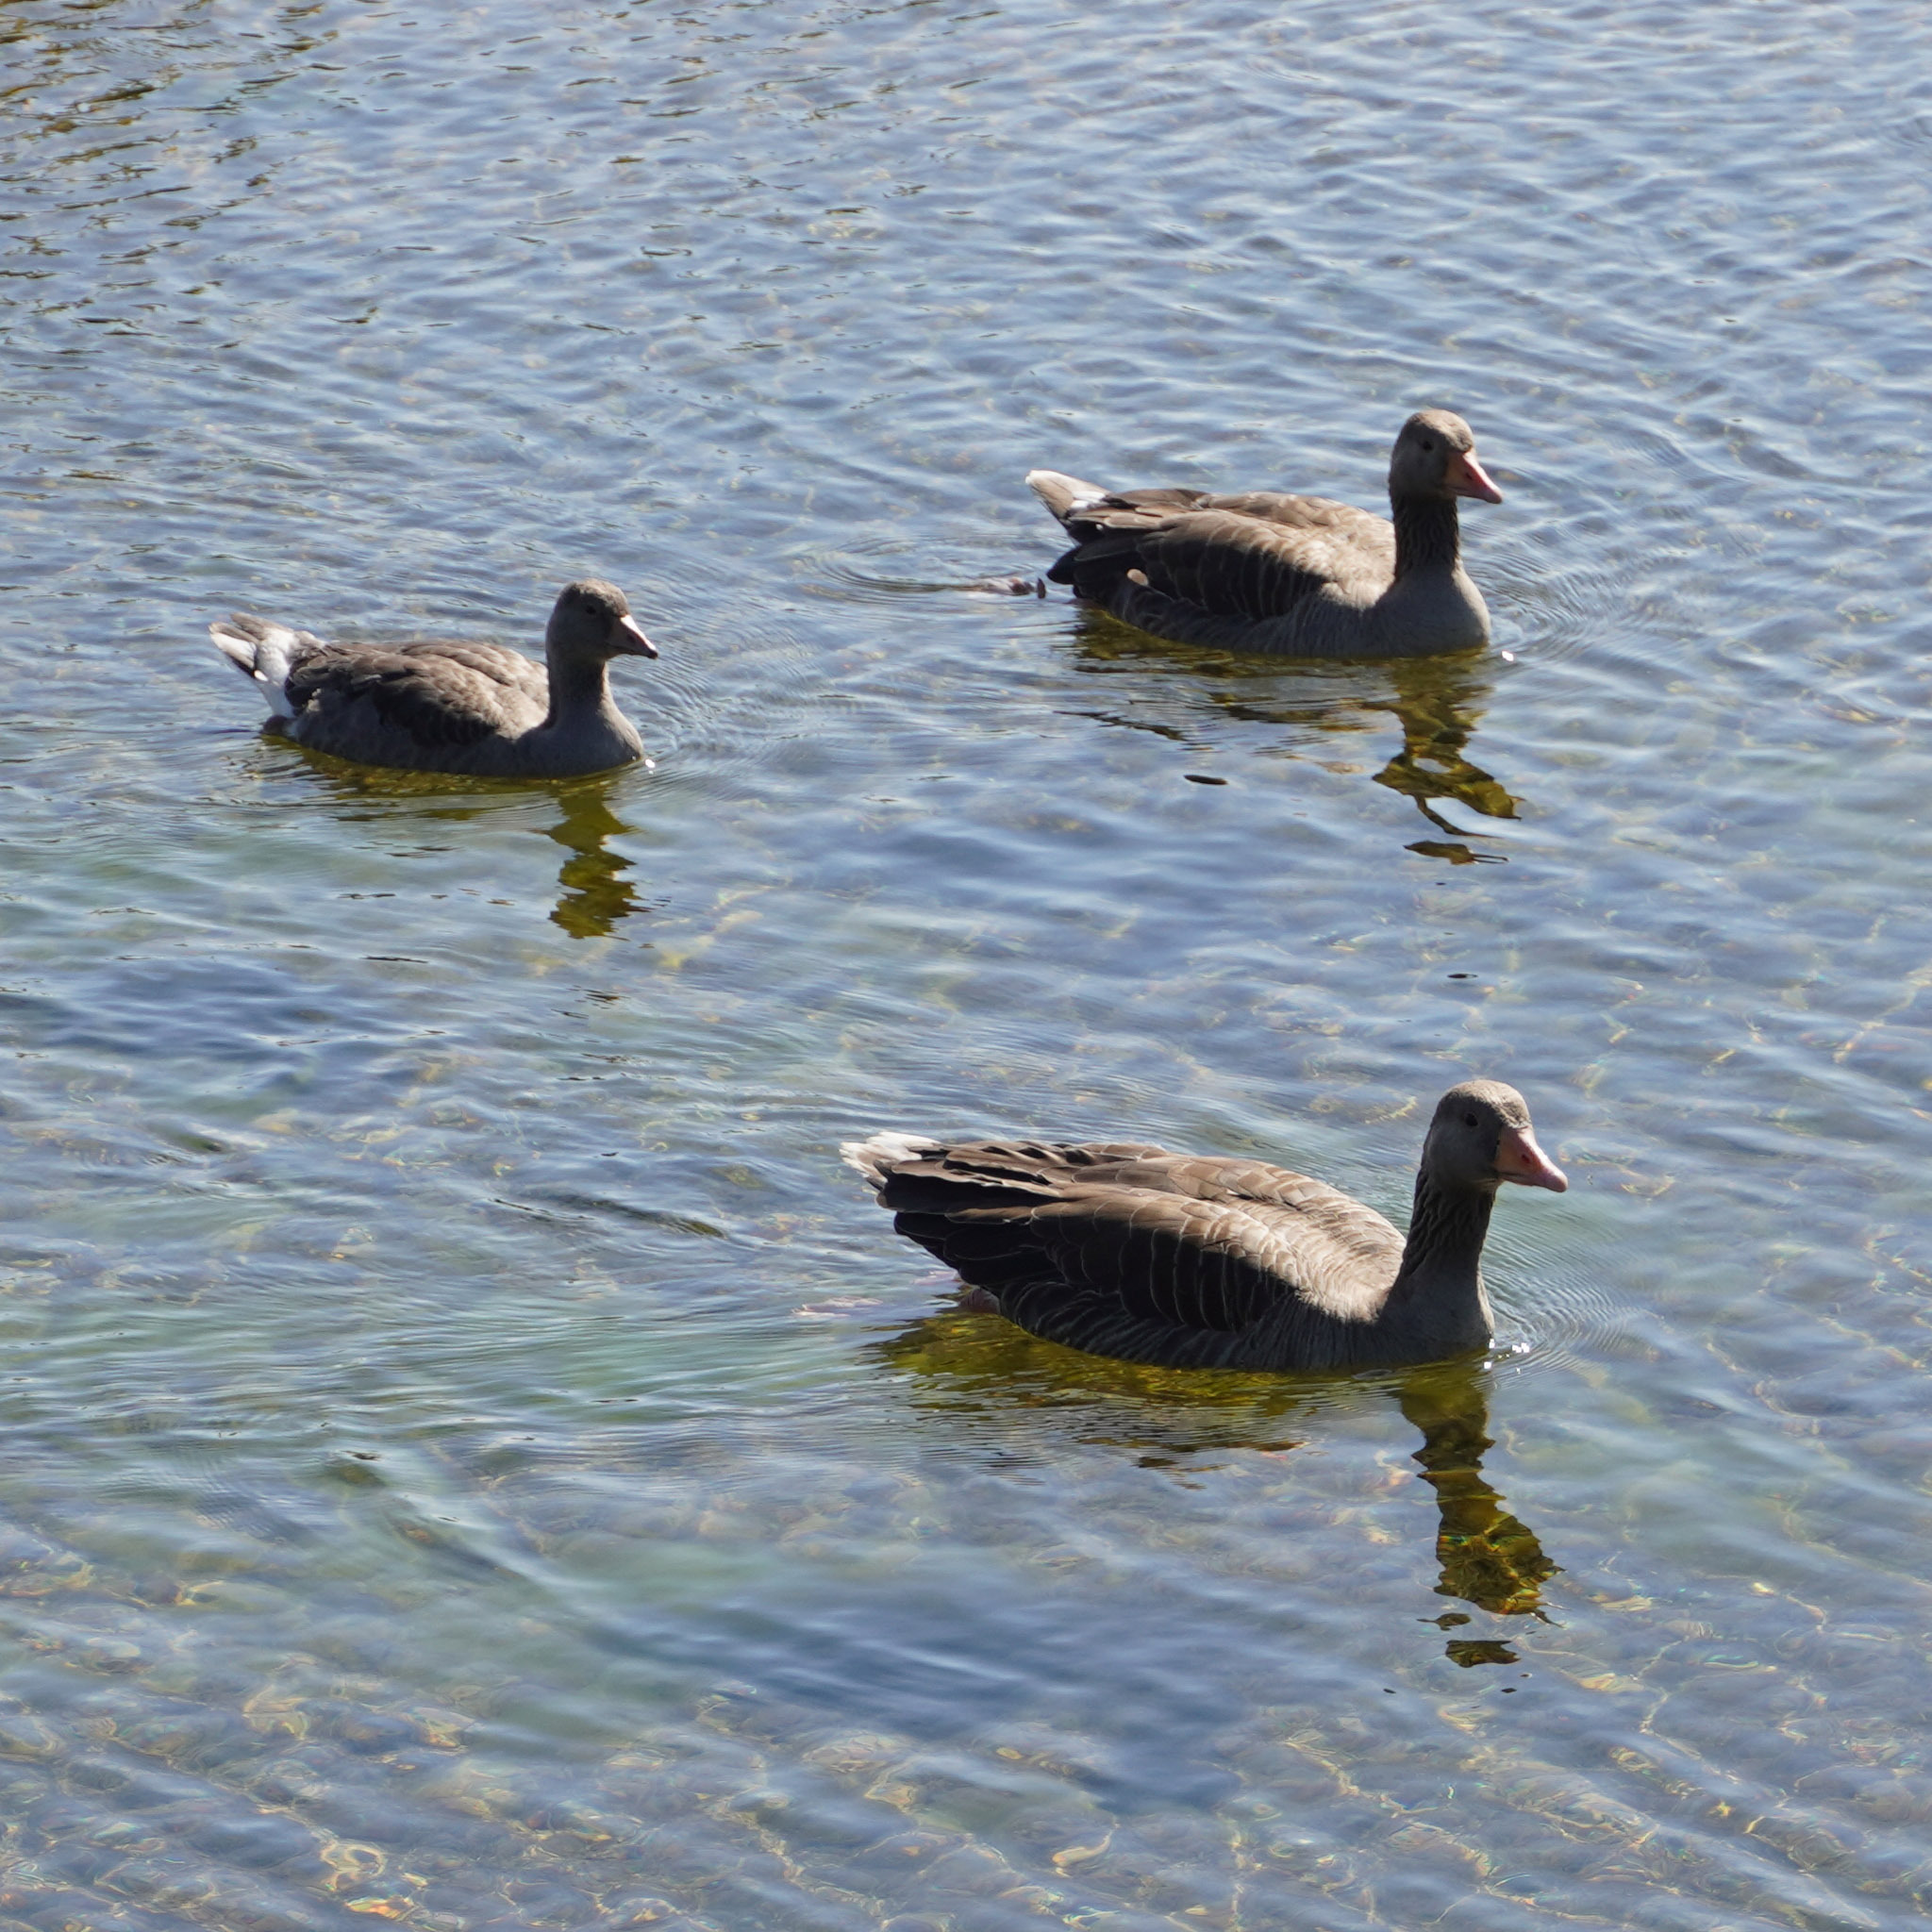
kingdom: Animalia
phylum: Chordata
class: Aves
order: Anseriformes
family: Anatidae
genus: Anser
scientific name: Anser anser
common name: Greylag goose
